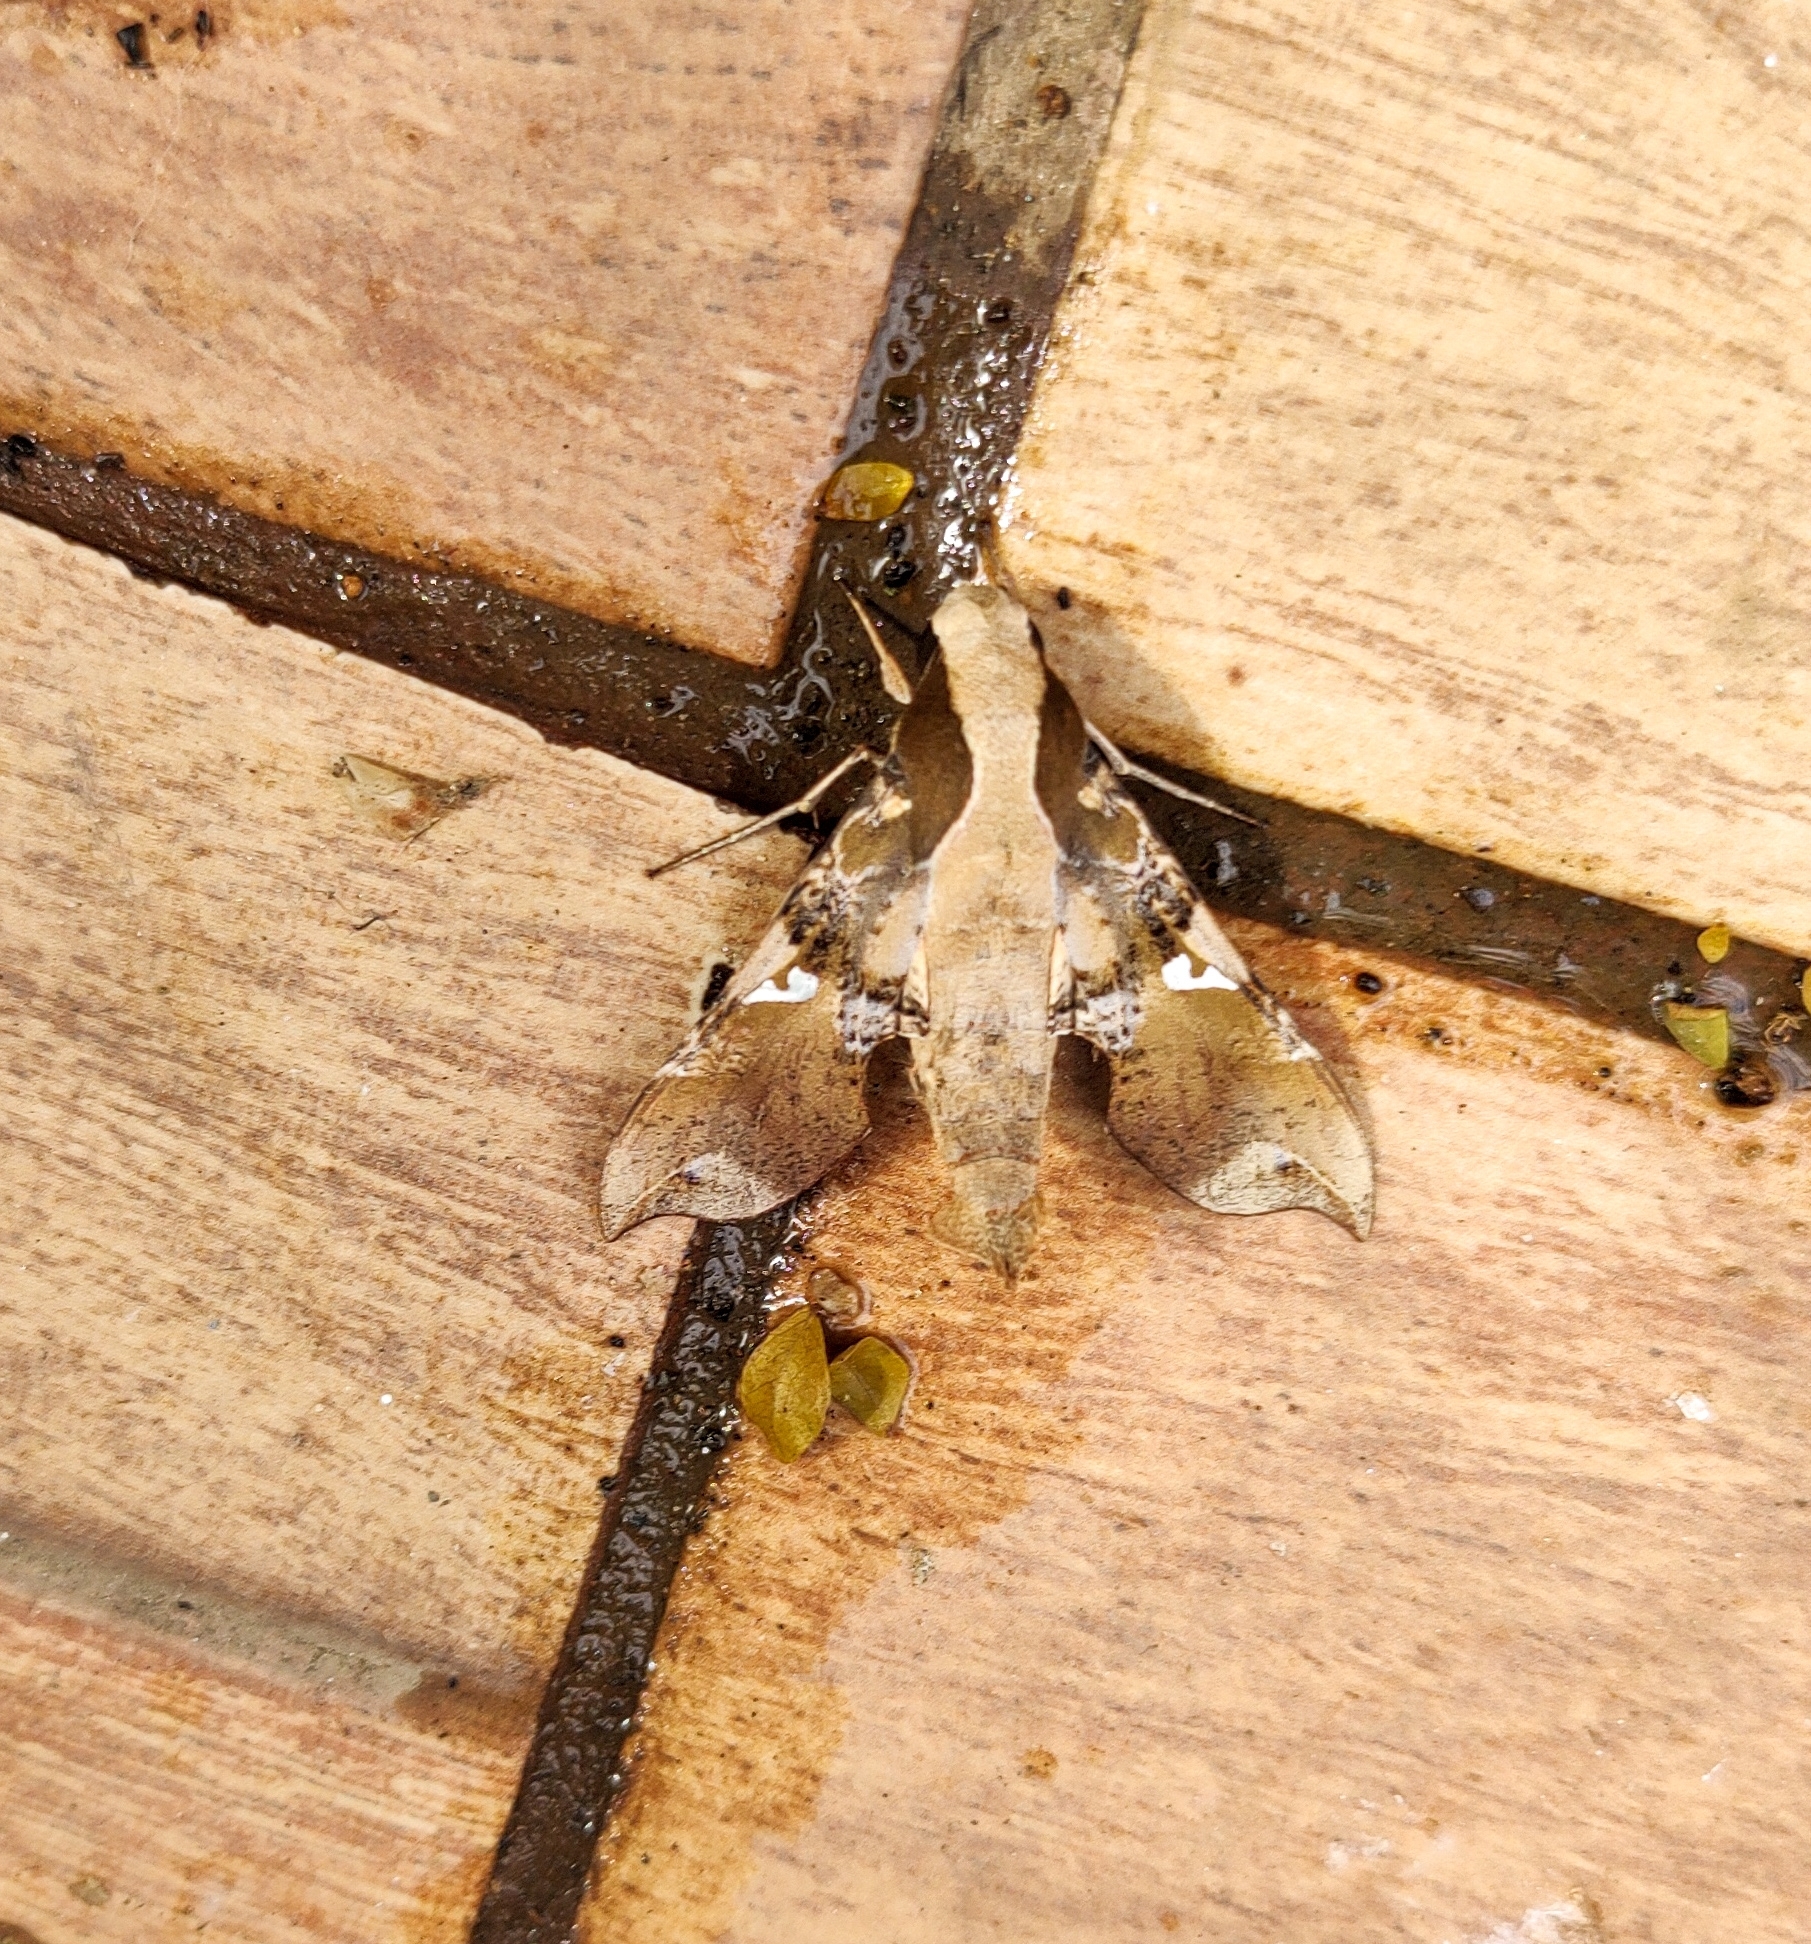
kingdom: Animalia
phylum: Arthropoda
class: Insecta
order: Lepidoptera
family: Sphingidae
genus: Callionima
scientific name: Callionima parce
